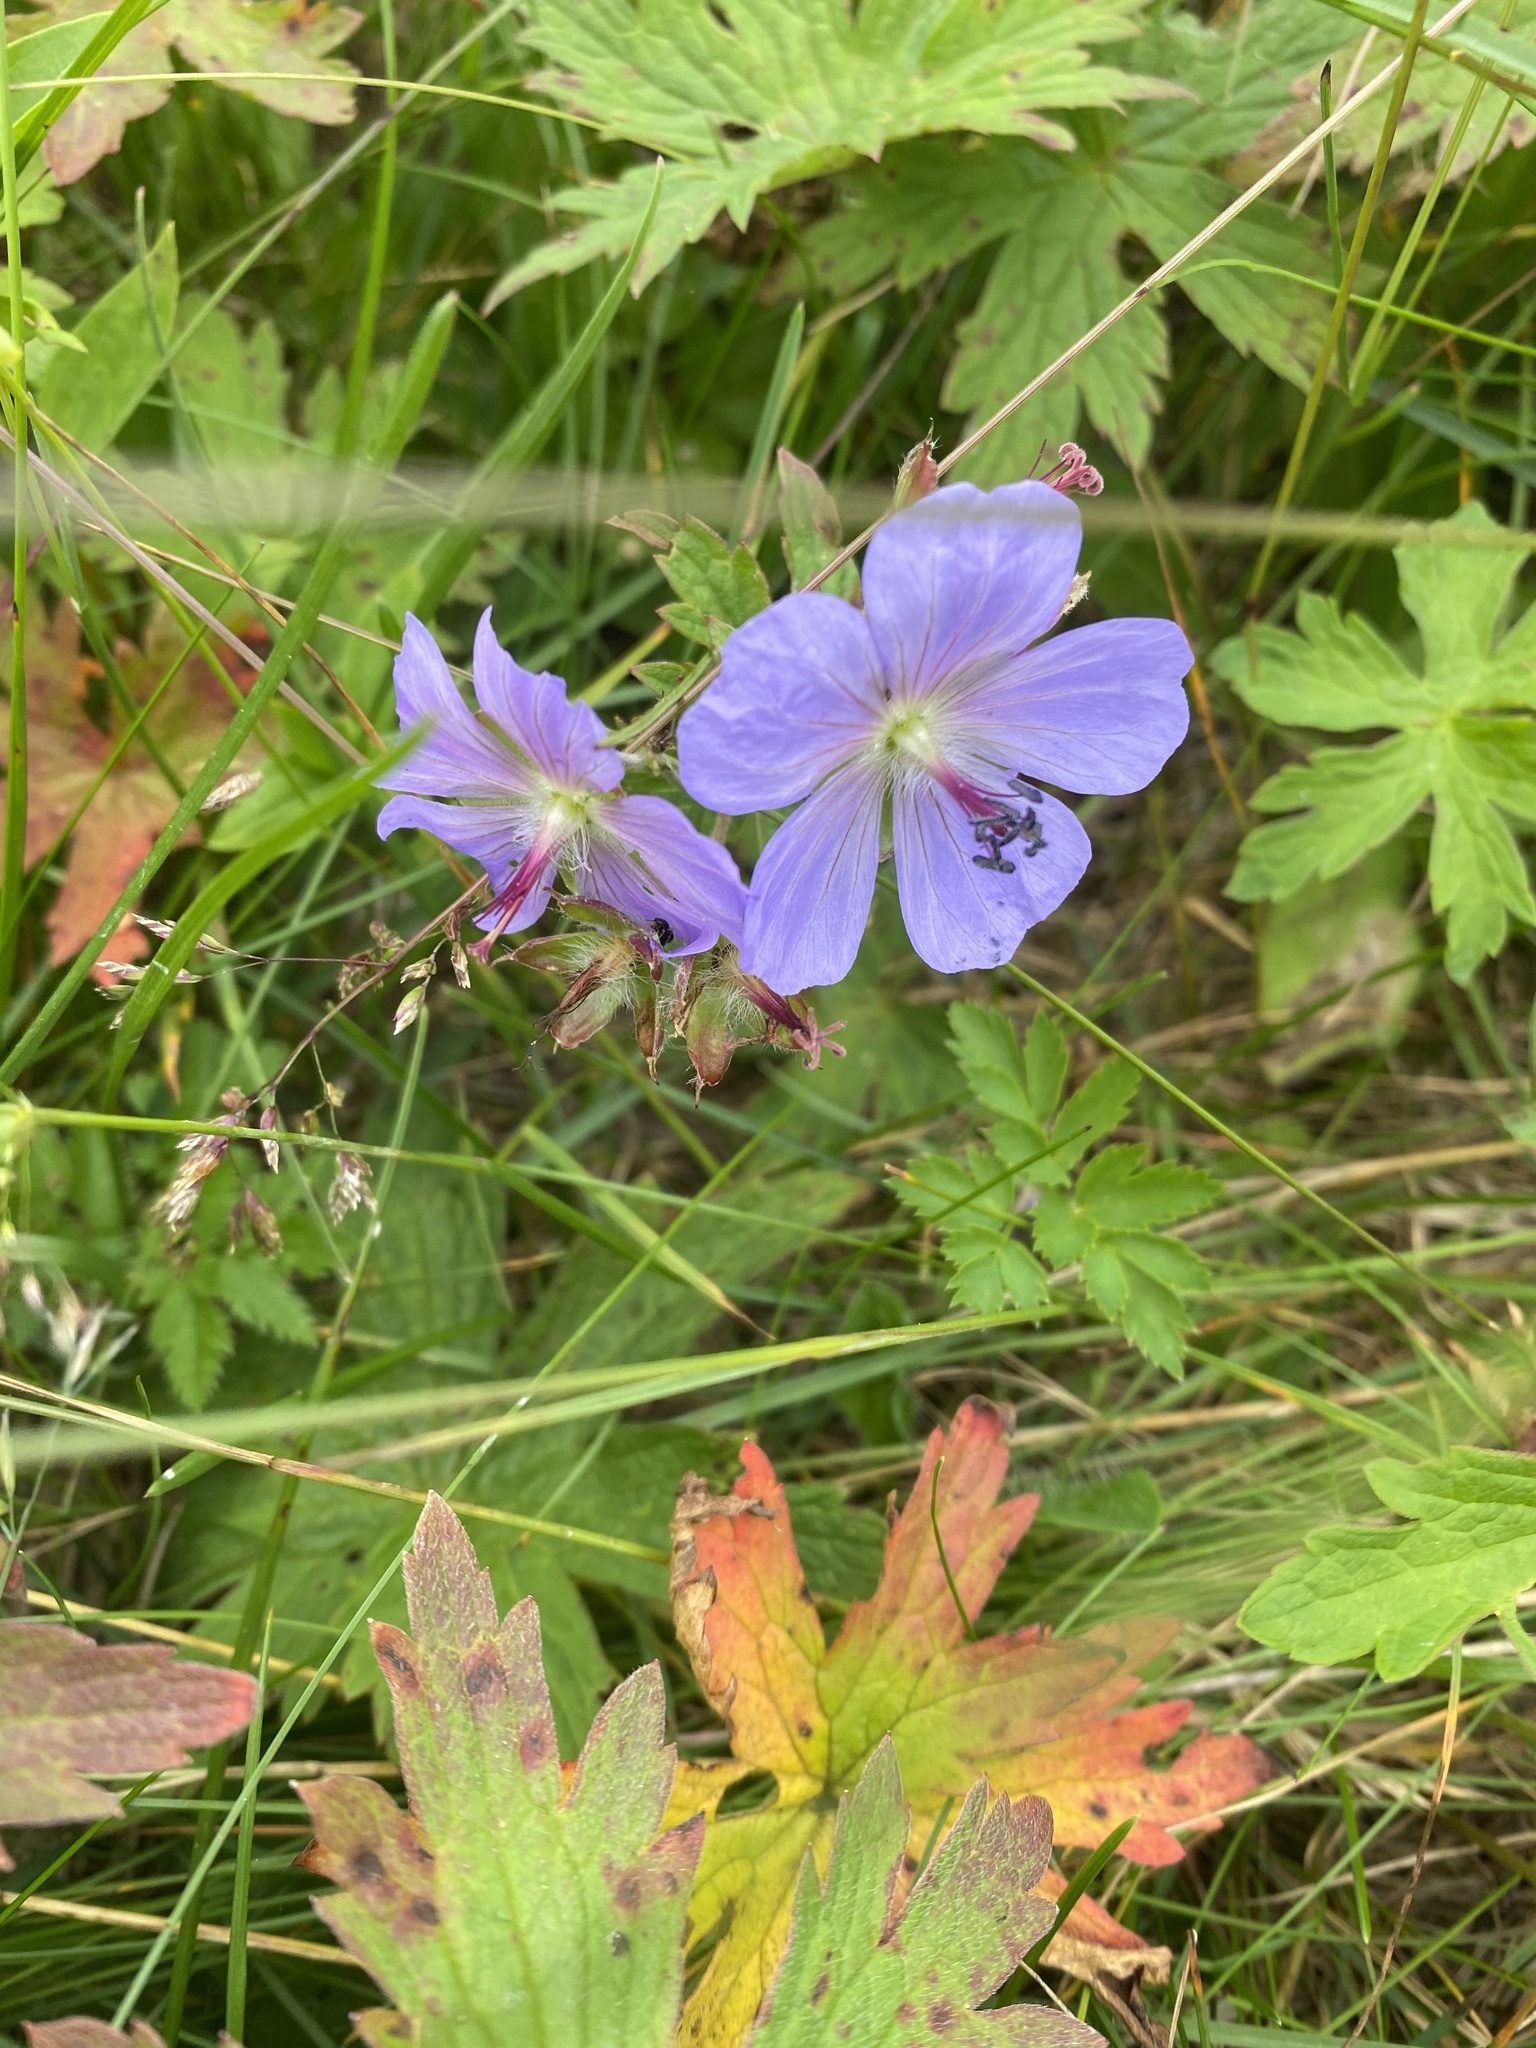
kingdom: Plantae
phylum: Tracheophyta
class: Magnoliopsida
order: Geraniales
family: Geraniaceae
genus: Geranium
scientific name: Geranium erianthum
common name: Northern crane's-bill
